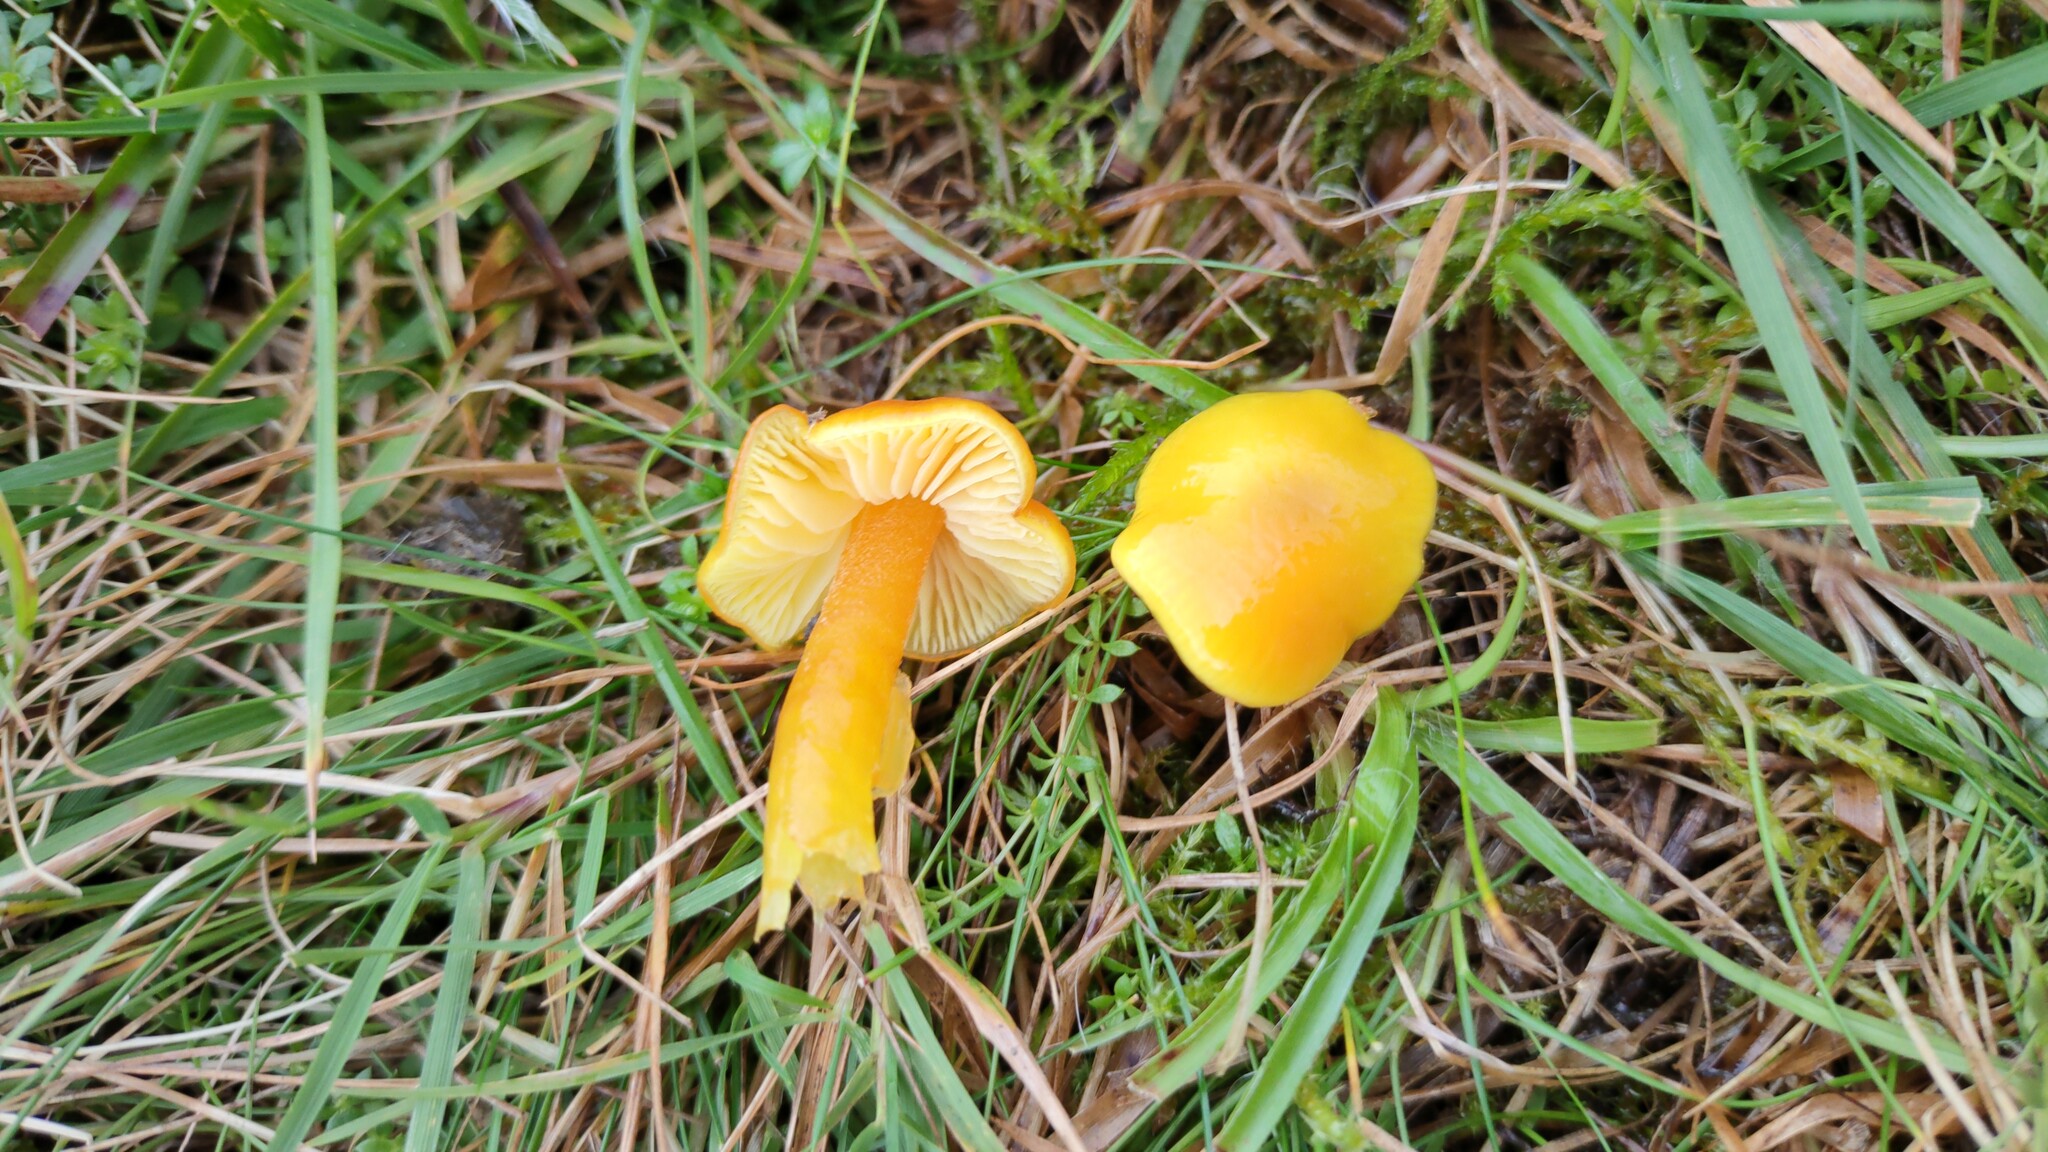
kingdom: Fungi
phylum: Basidiomycota
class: Agaricomycetes
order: Agaricales
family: Hygrophoraceae
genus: Hygrocybe
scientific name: Hygrocybe chlorophana
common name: Golden waxcap
